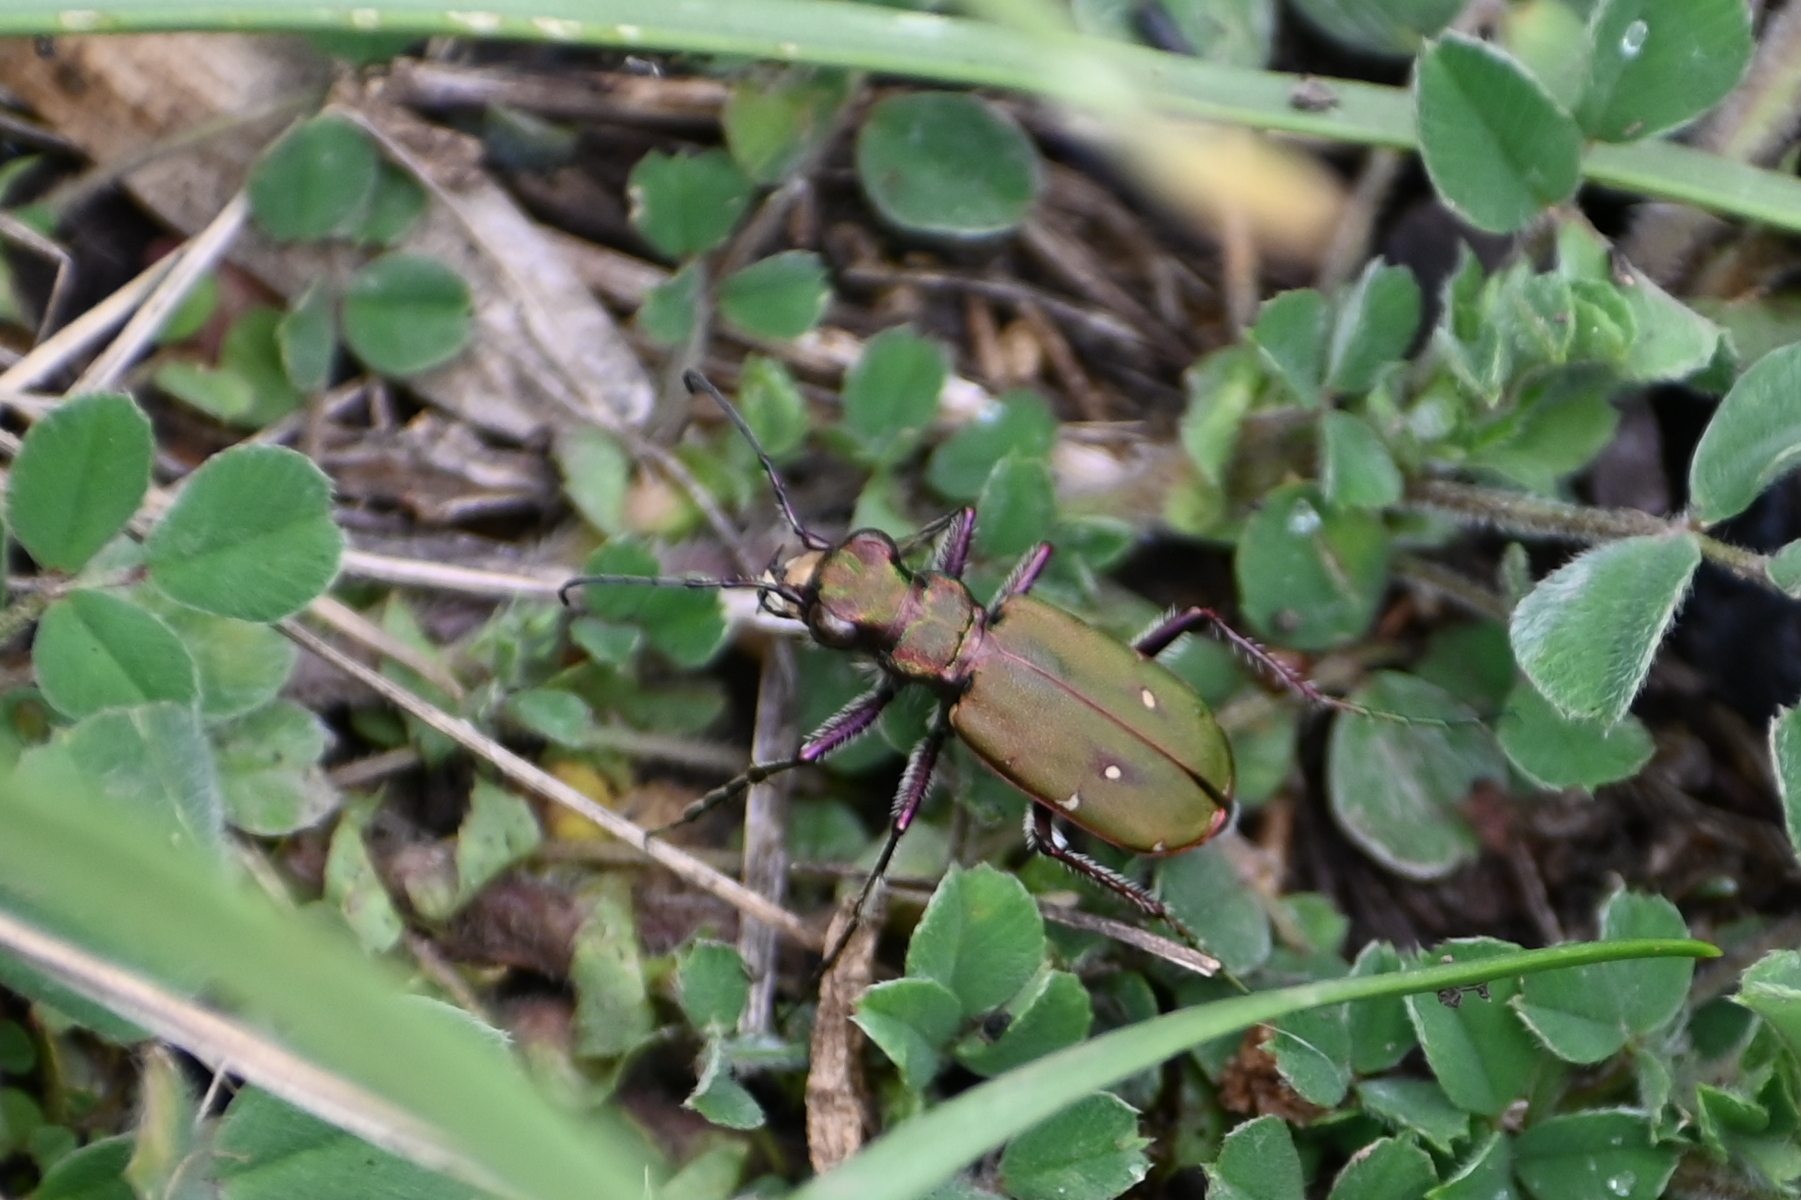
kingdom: Animalia
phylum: Arthropoda
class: Insecta
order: Coleoptera
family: Carabidae
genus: Cicindela
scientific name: Cicindela campestris
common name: Common tiger beetle
